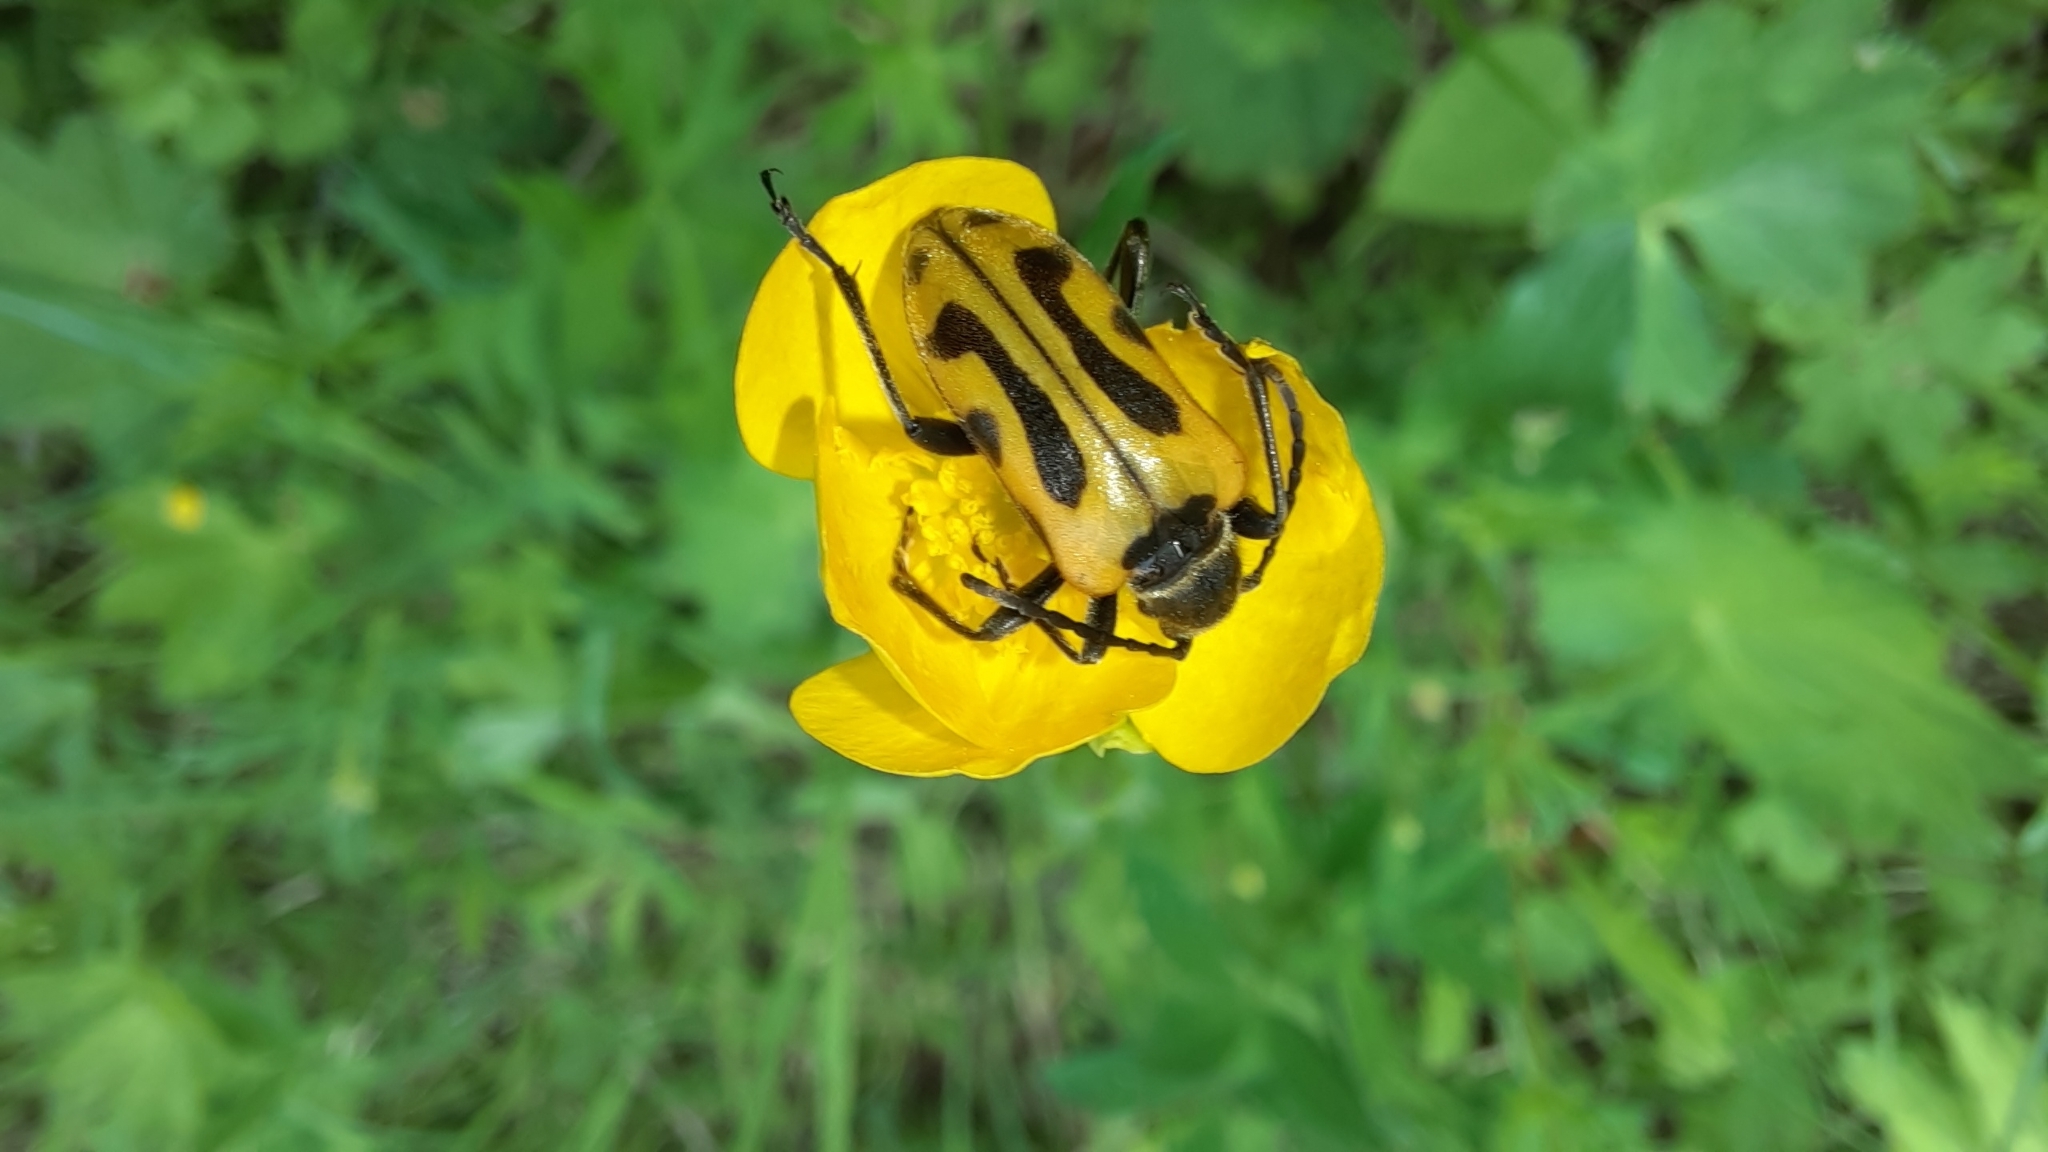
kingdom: Animalia
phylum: Arthropoda
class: Insecta
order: Coleoptera
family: Cerambycidae
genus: Brachyta
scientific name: Brachyta interrogationis
